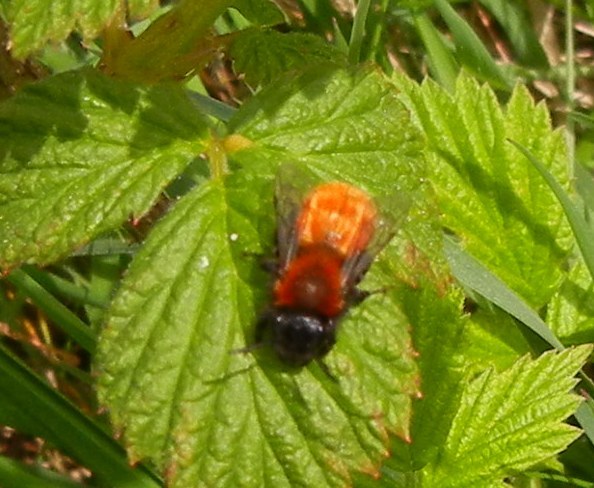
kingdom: Animalia
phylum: Arthropoda
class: Insecta
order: Hymenoptera
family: Andrenidae
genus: Andrena
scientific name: Andrena fulva
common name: Tawny mining bee
